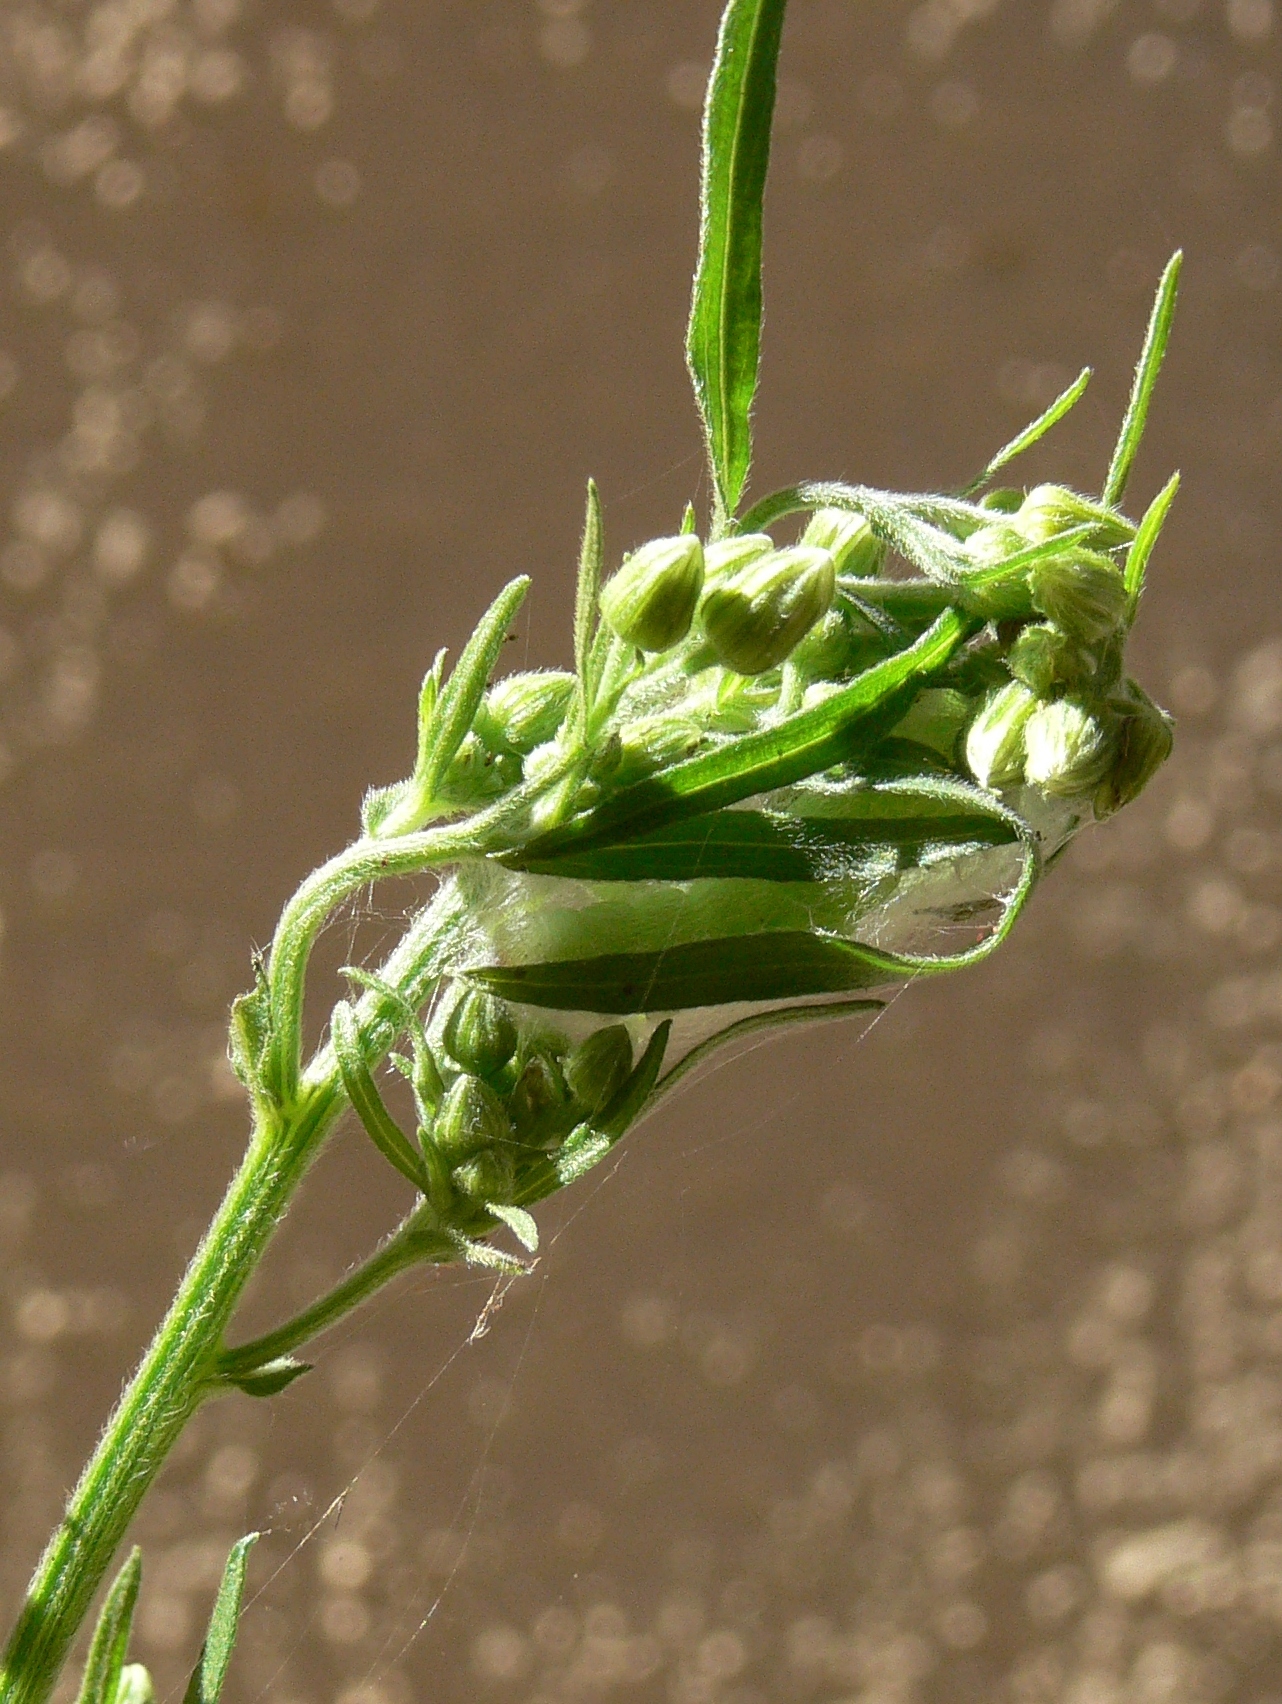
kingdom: Animalia
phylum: Arthropoda
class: Insecta
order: Lepidoptera
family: Noctuidae
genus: Vittaplusia
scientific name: Vittaplusia vittata
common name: Streaked plusia
